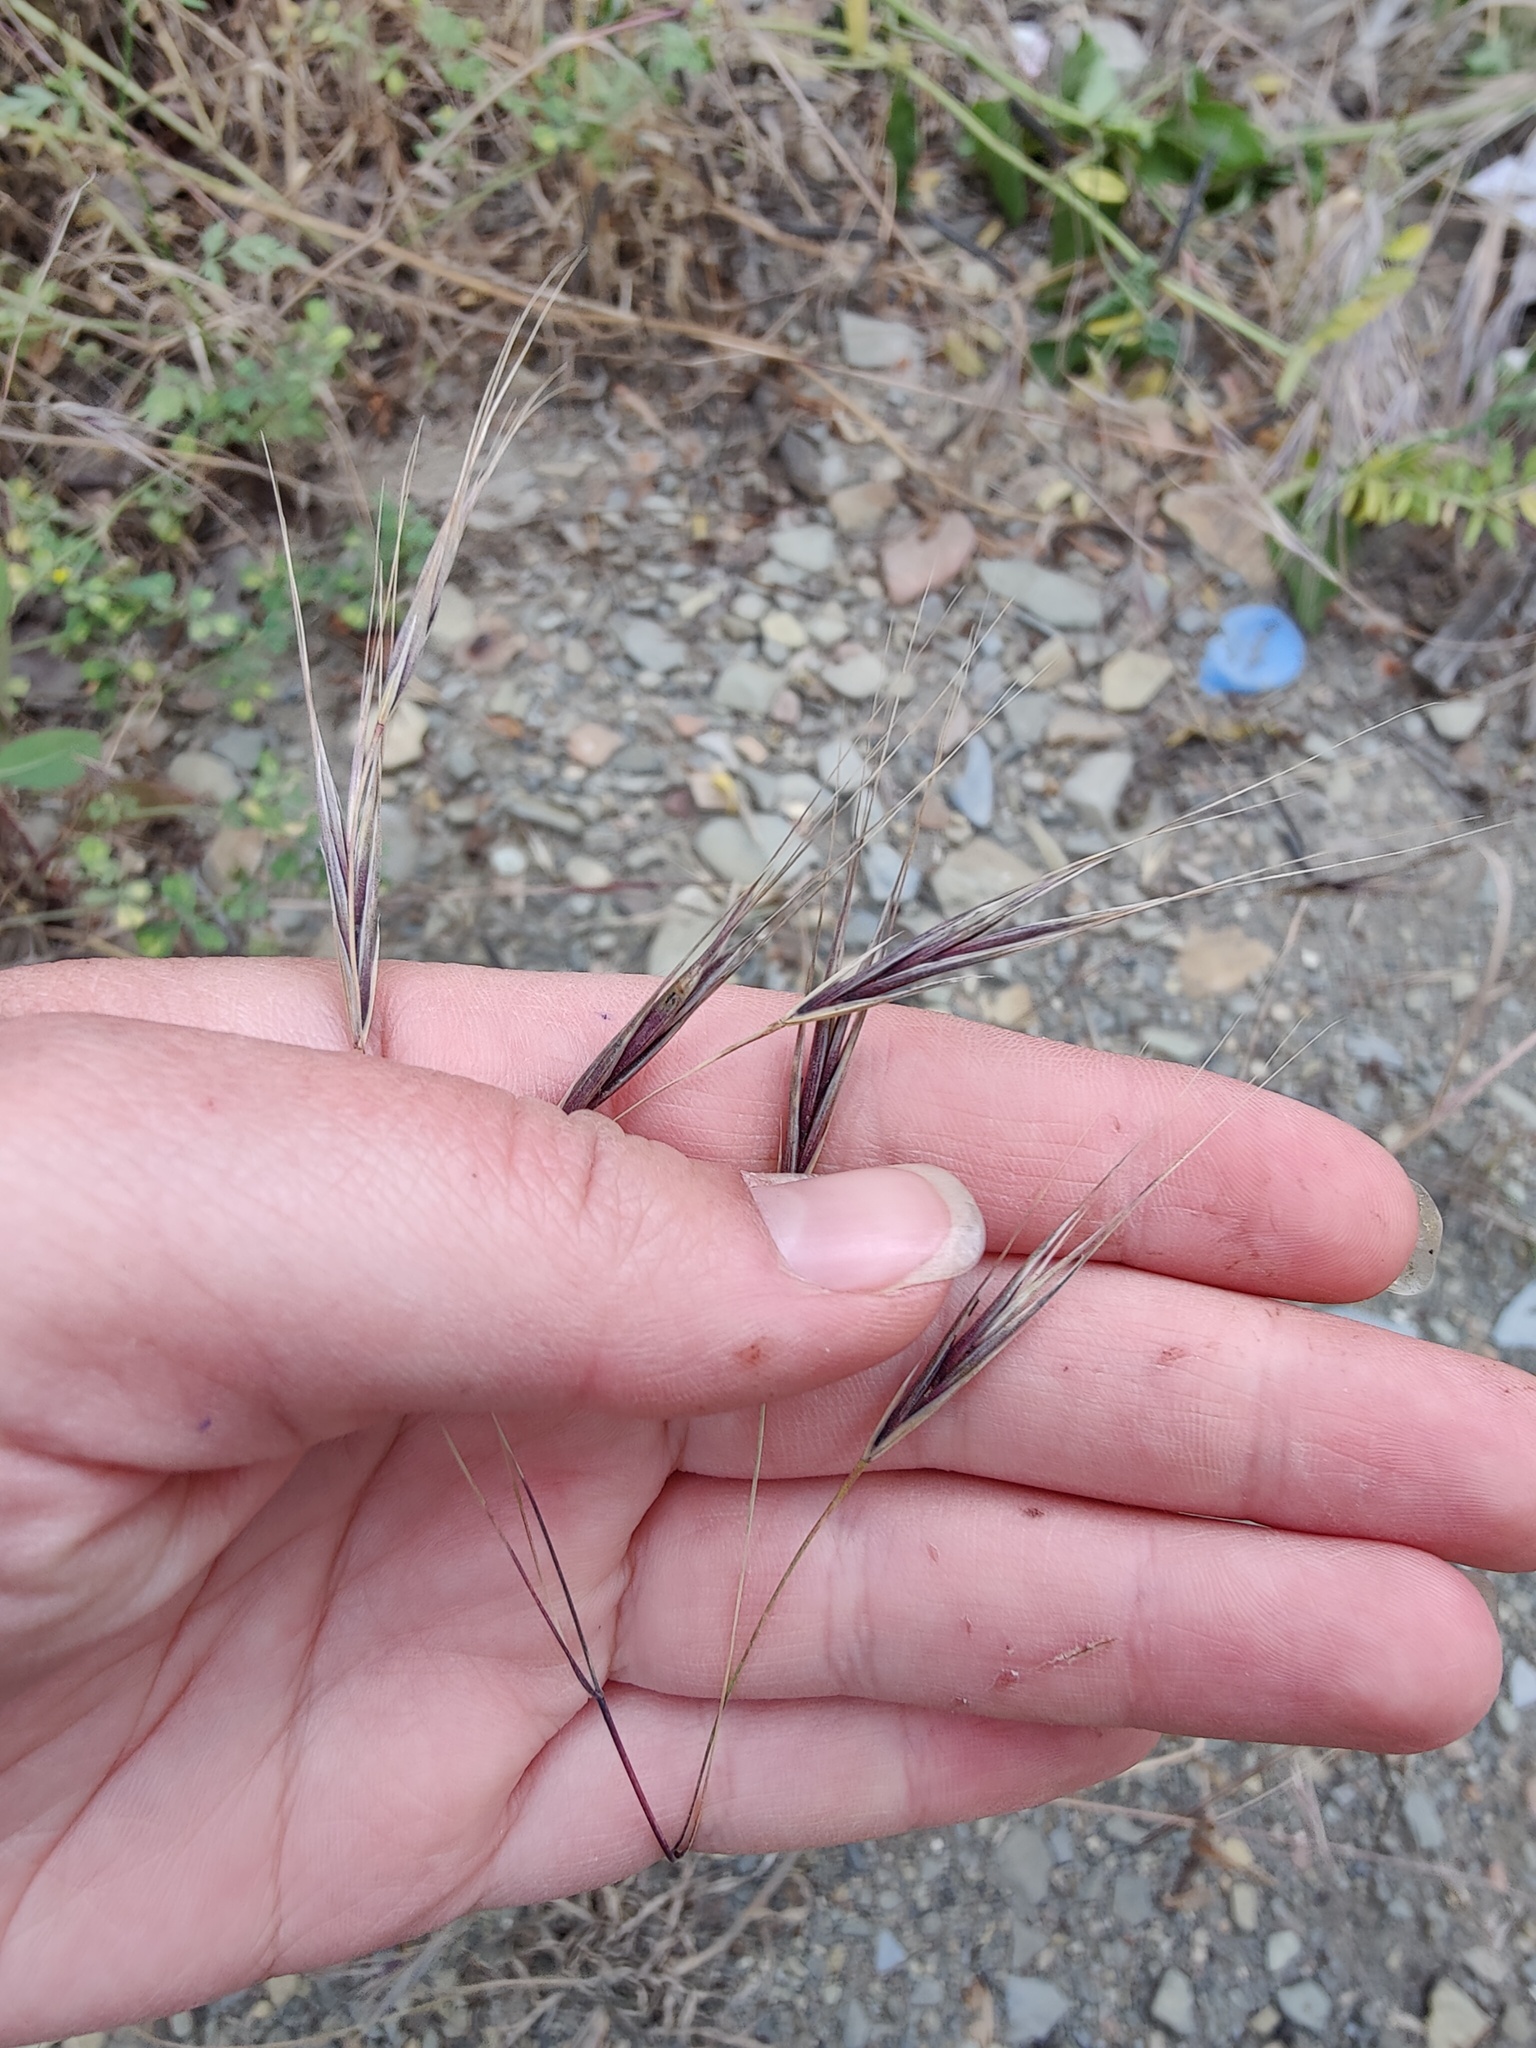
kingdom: Plantae
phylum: Tracheophyta
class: Liliopsida
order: Poales
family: Poaceae
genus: Bromus
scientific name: Bromus sterilis
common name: Poverty brome
